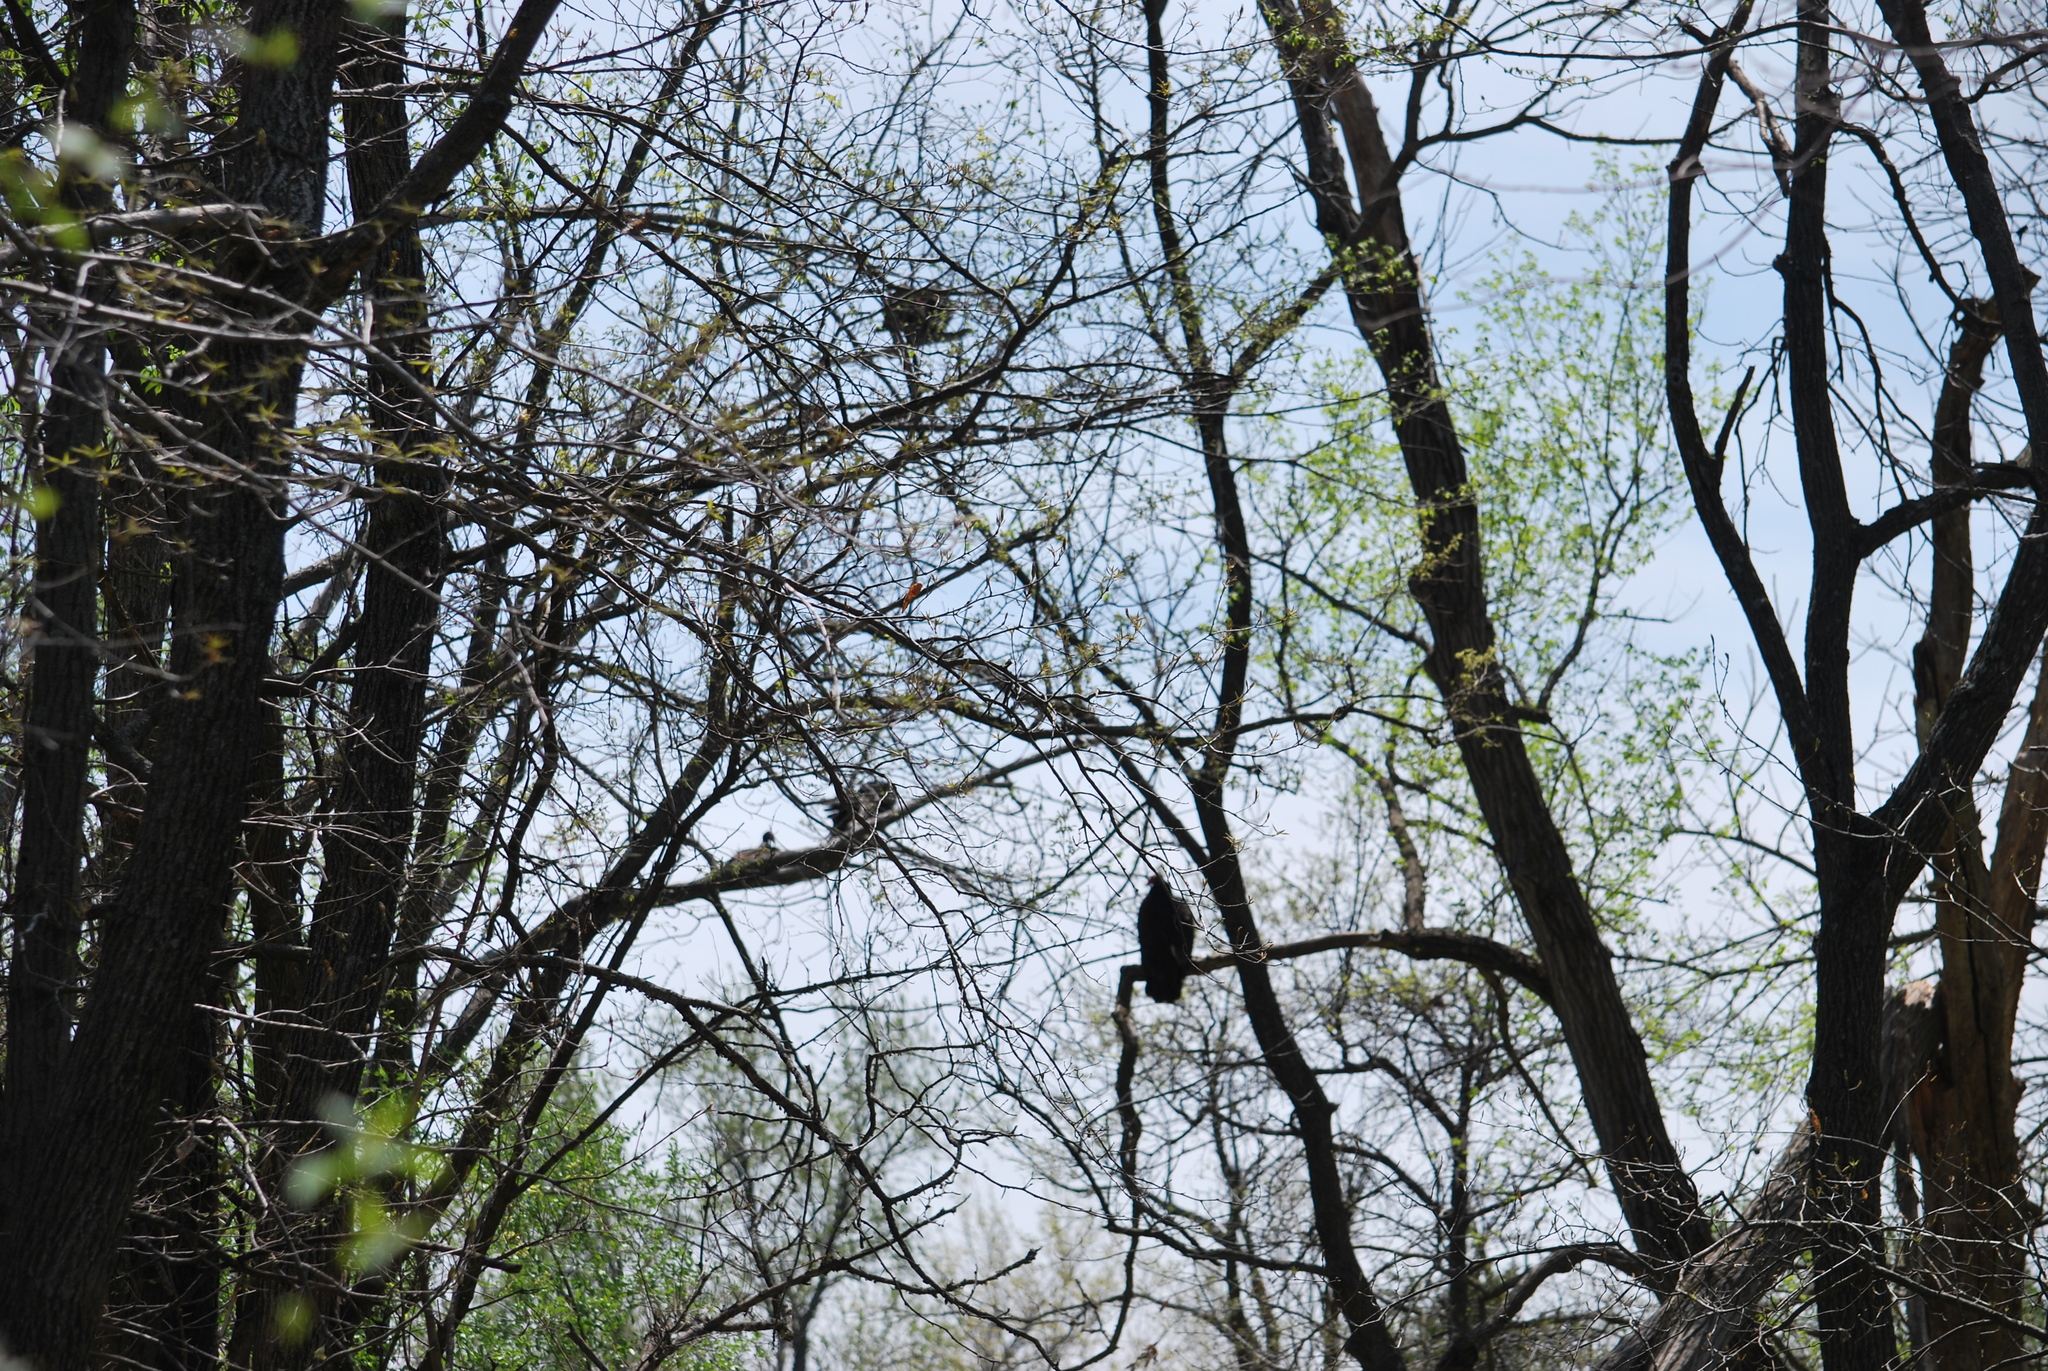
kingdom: Animalia
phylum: Chordata
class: Aves
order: Accipitriformes
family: Cathartidae
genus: Cathartes
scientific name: Cathartes aura
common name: Turkey vulture
